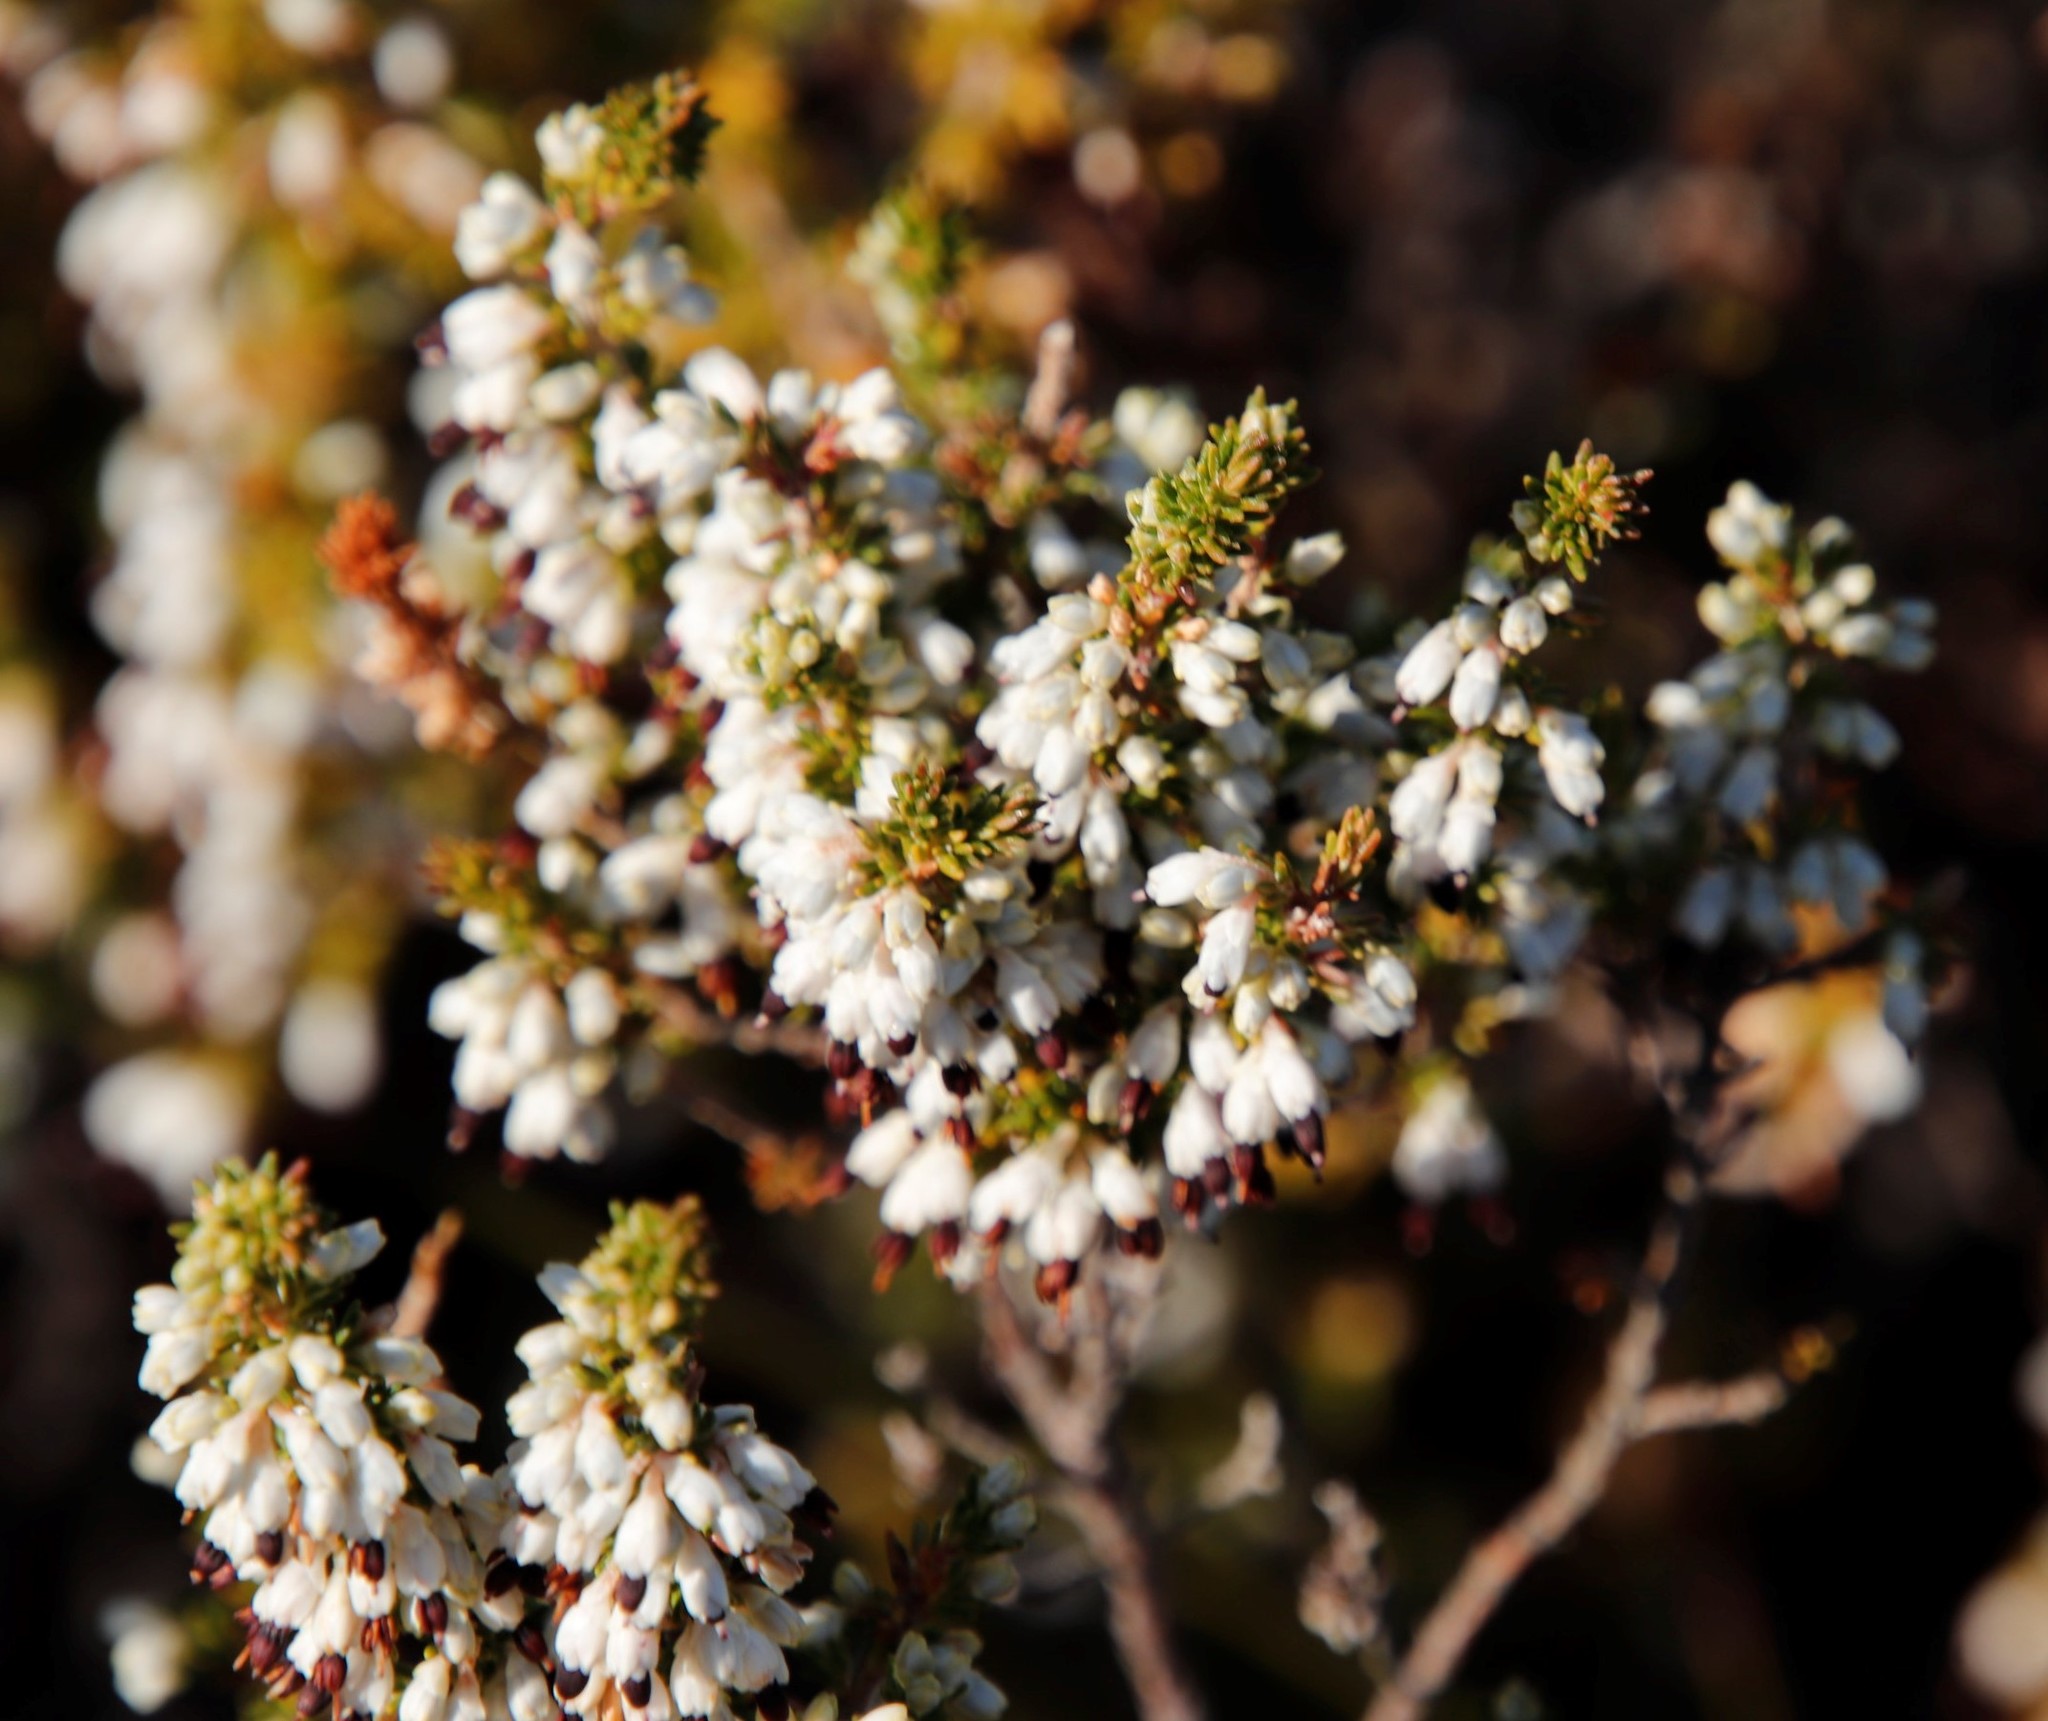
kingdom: Plantae
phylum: Tracheophyta
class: Magnoliopsida
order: Ericales
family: Ericaceae
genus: Erica
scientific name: Erica imbricata
